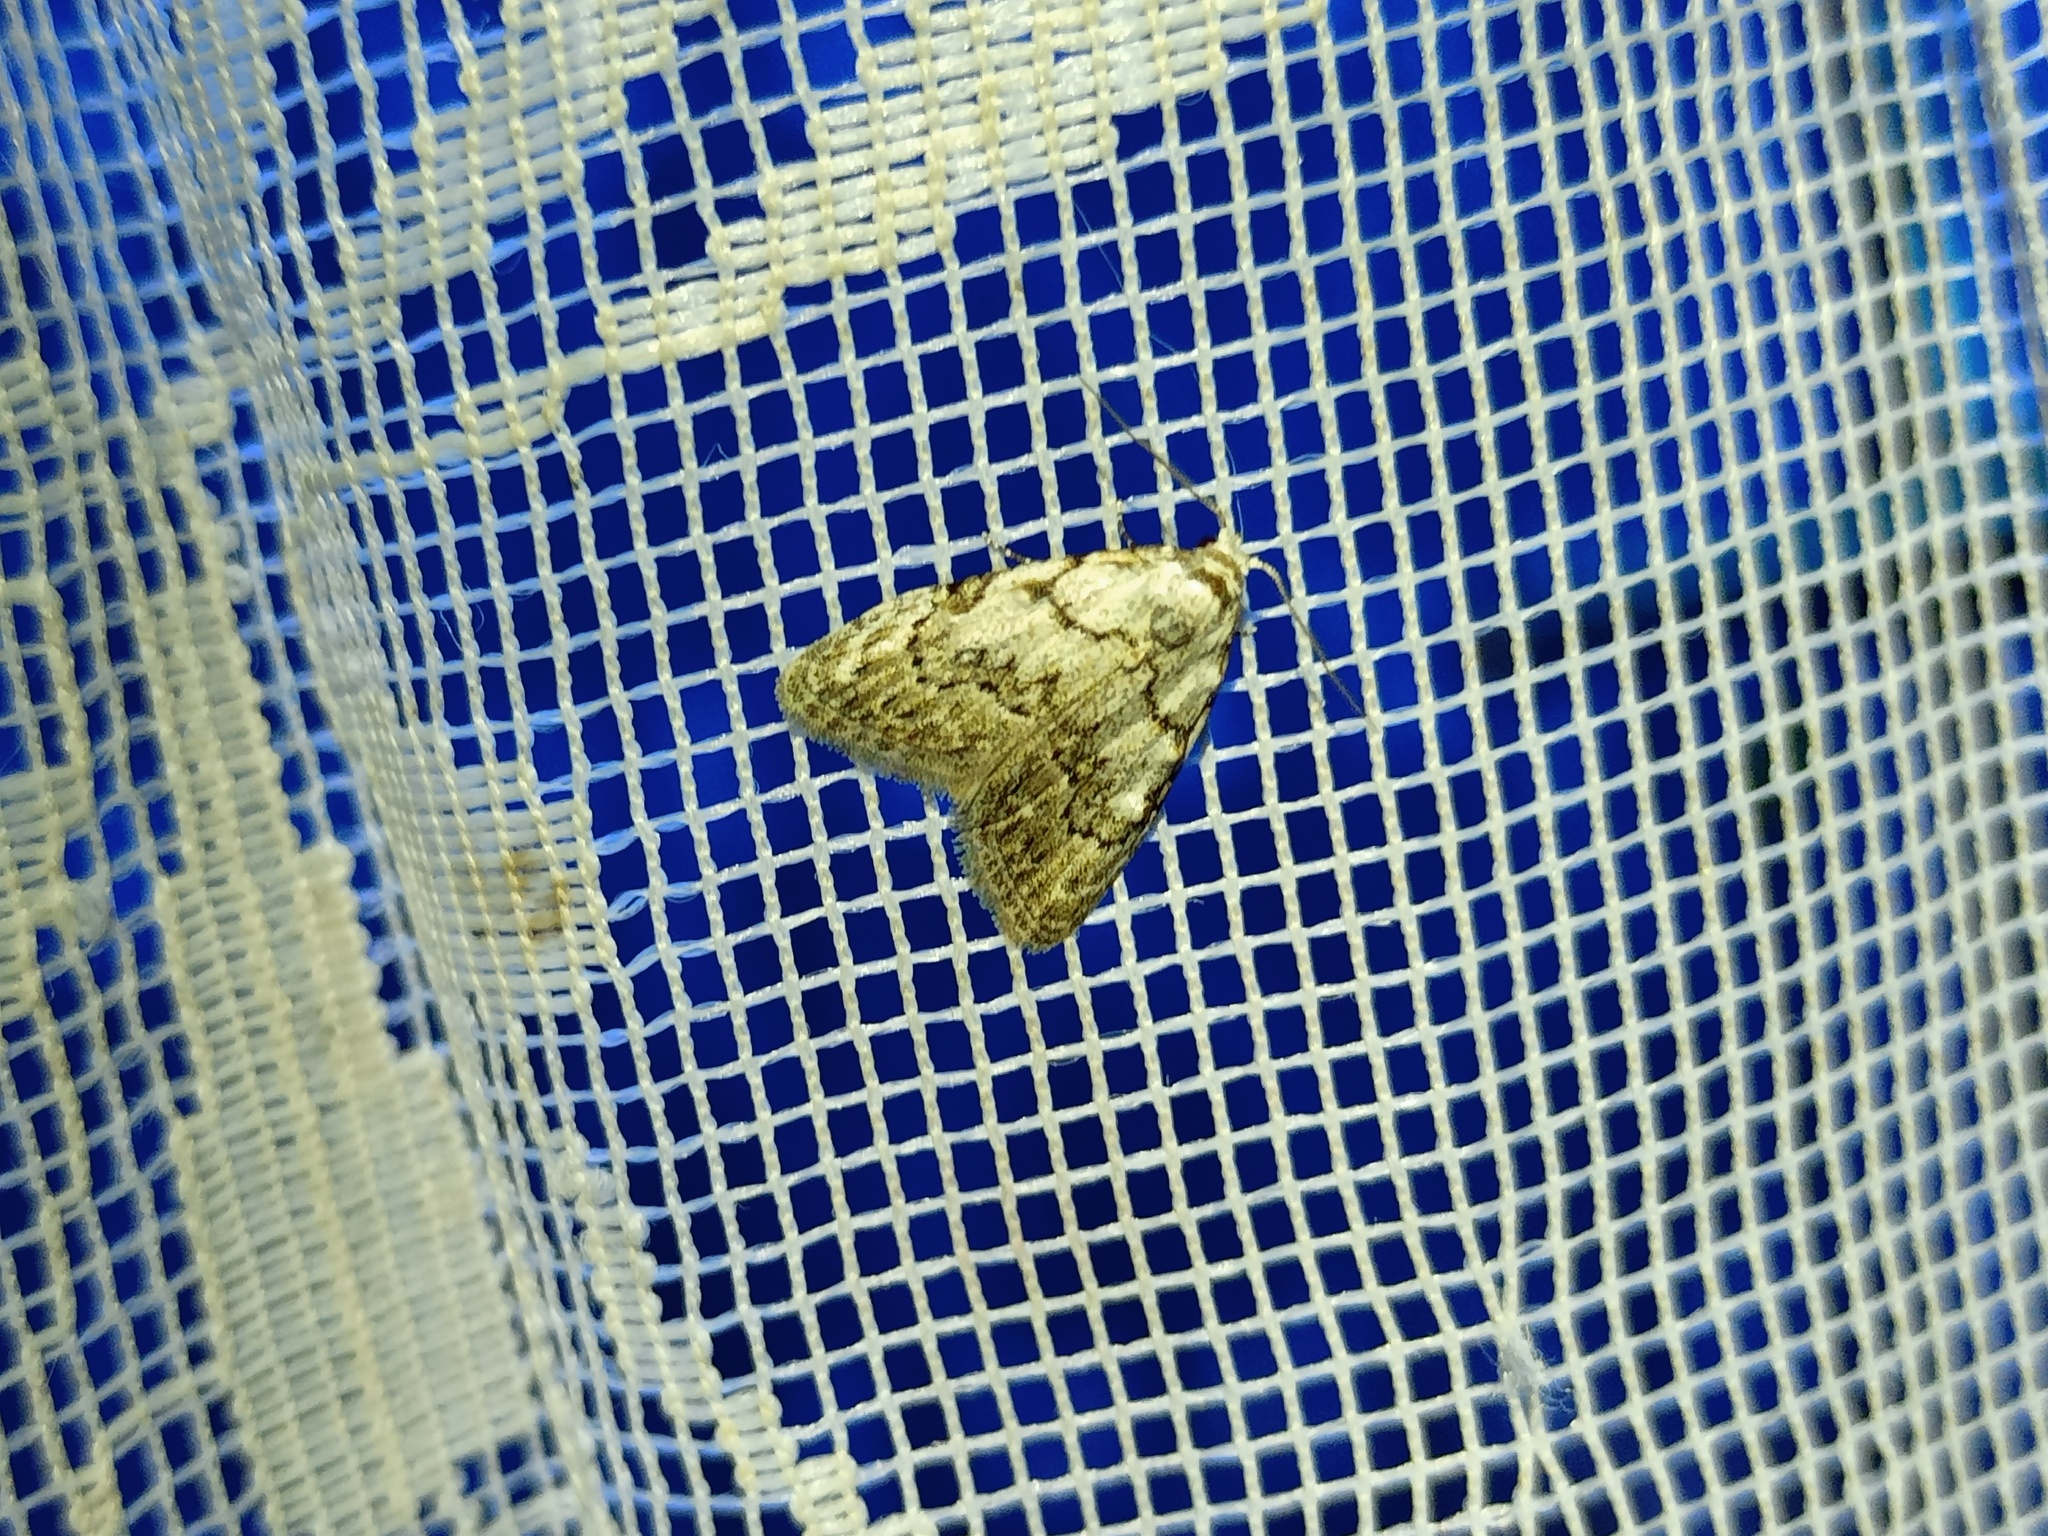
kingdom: Animalia
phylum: Arthropoda
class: Insecta
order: Lepidoptera
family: Nolidae
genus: Nola
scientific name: Nola confusalis
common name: Least black arches
